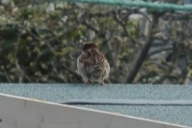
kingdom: Animalia
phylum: Chordata
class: Aves
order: Passeriformes
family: Passeridae
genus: Passer
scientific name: Passer domesticus
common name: House sparrow
